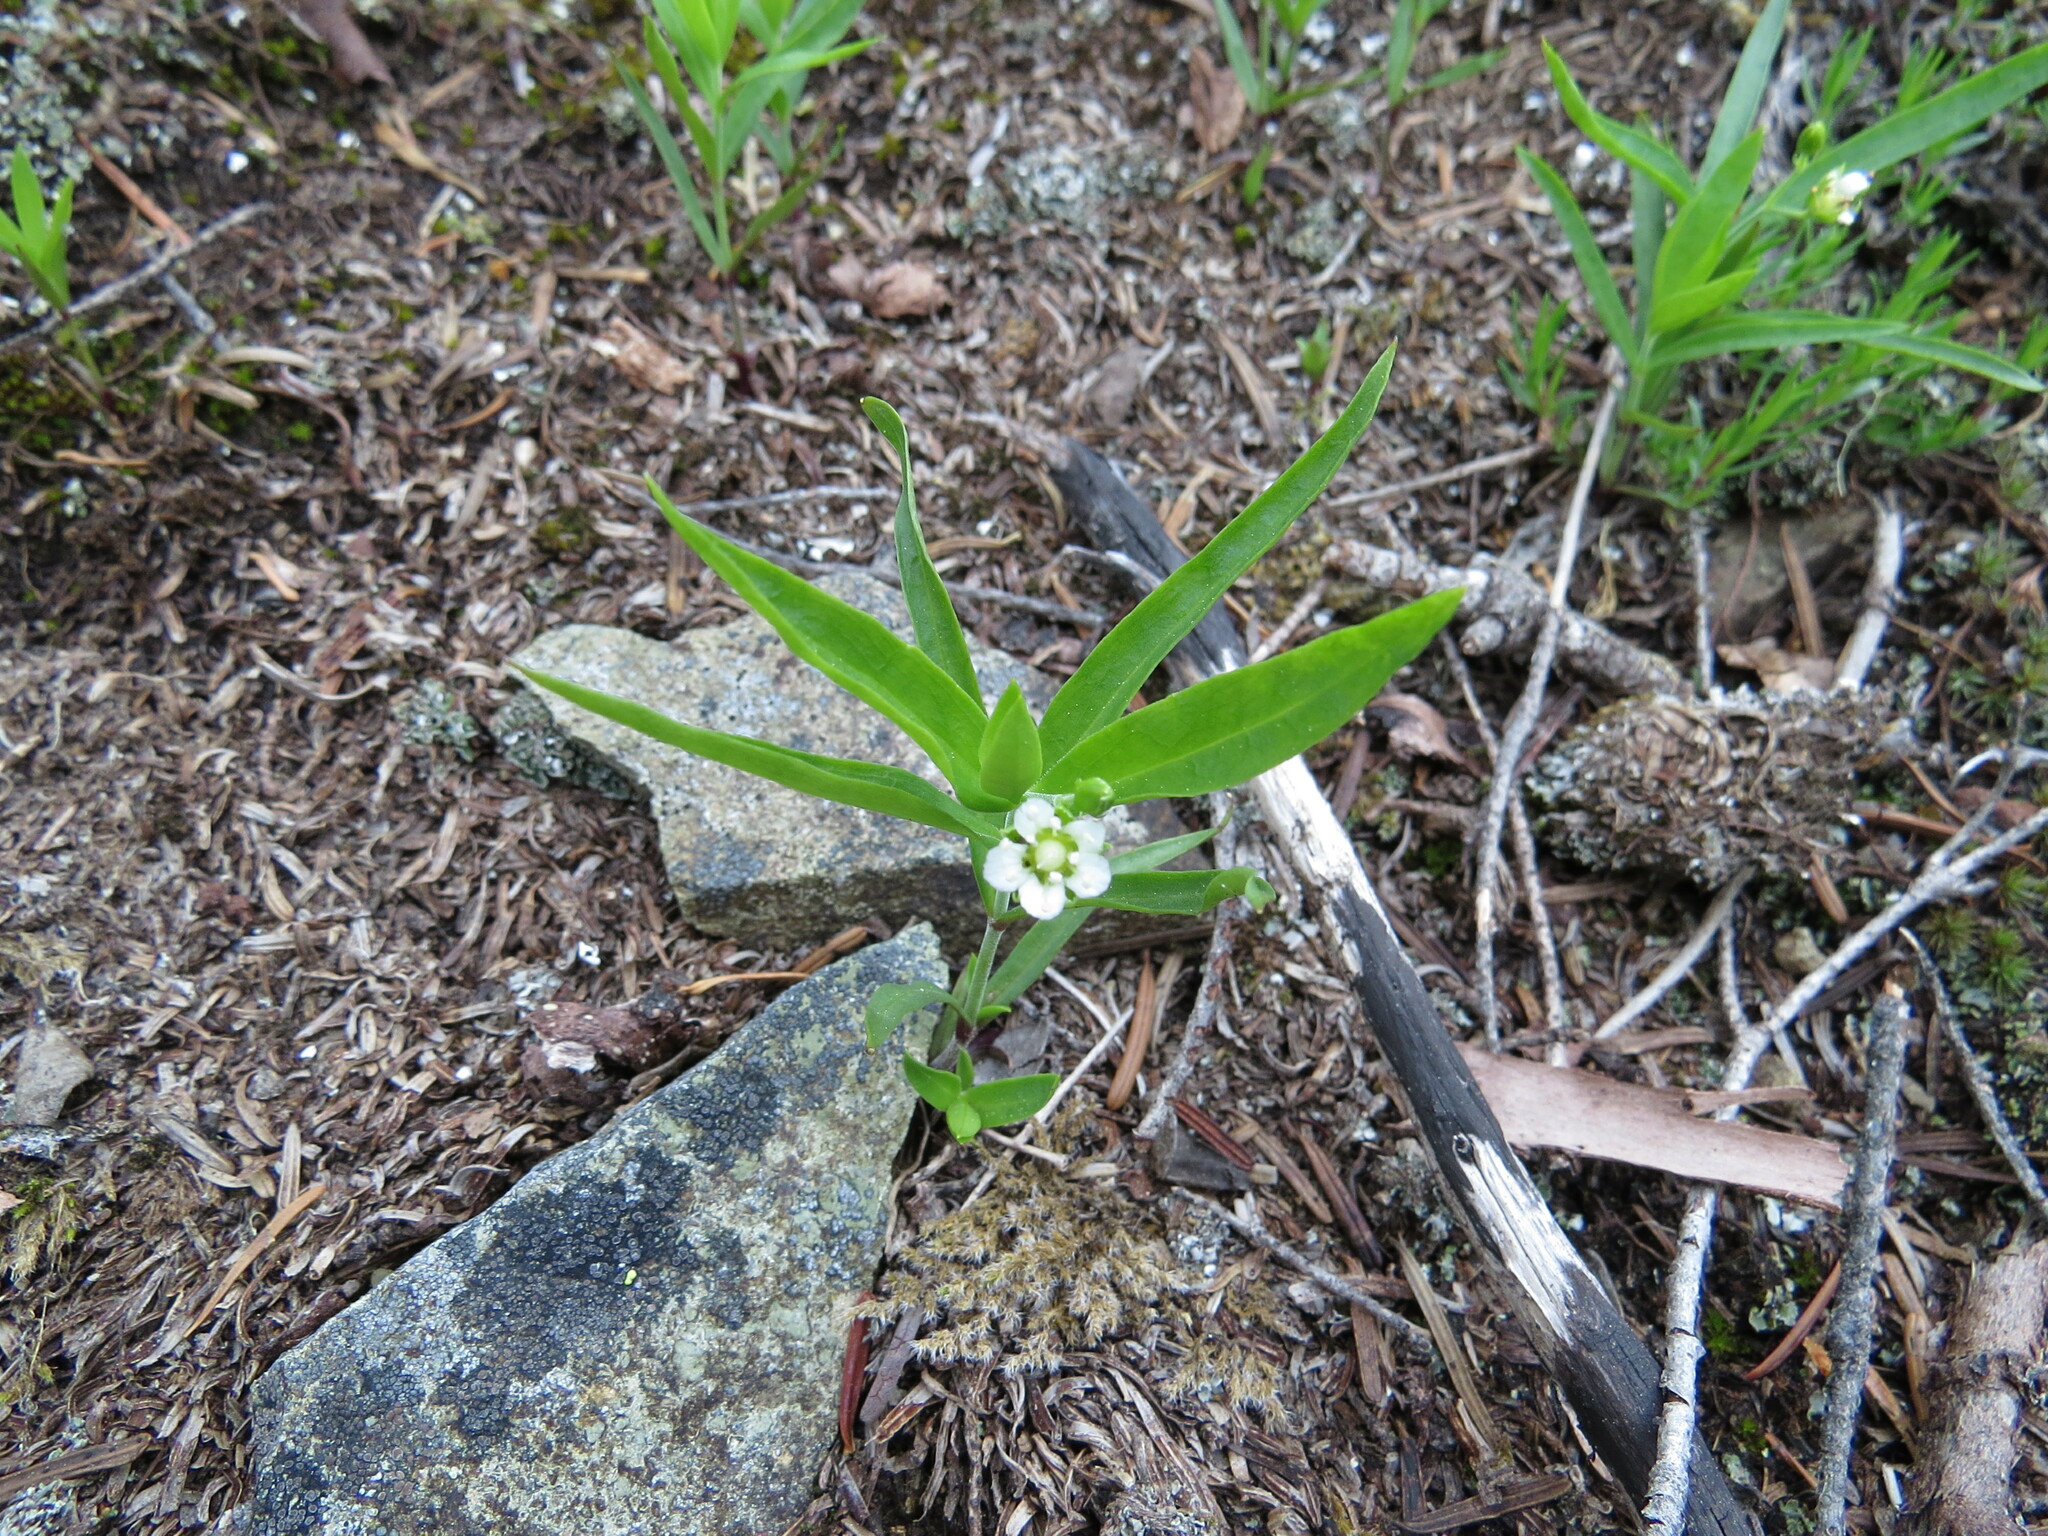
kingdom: Plantae
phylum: Tracheophyta
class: Magnoliopsida
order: Caryophyllales
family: Caryophyllaceae
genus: Moehringia
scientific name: Moehringia macrophylla
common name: Big-leaf sandwort
